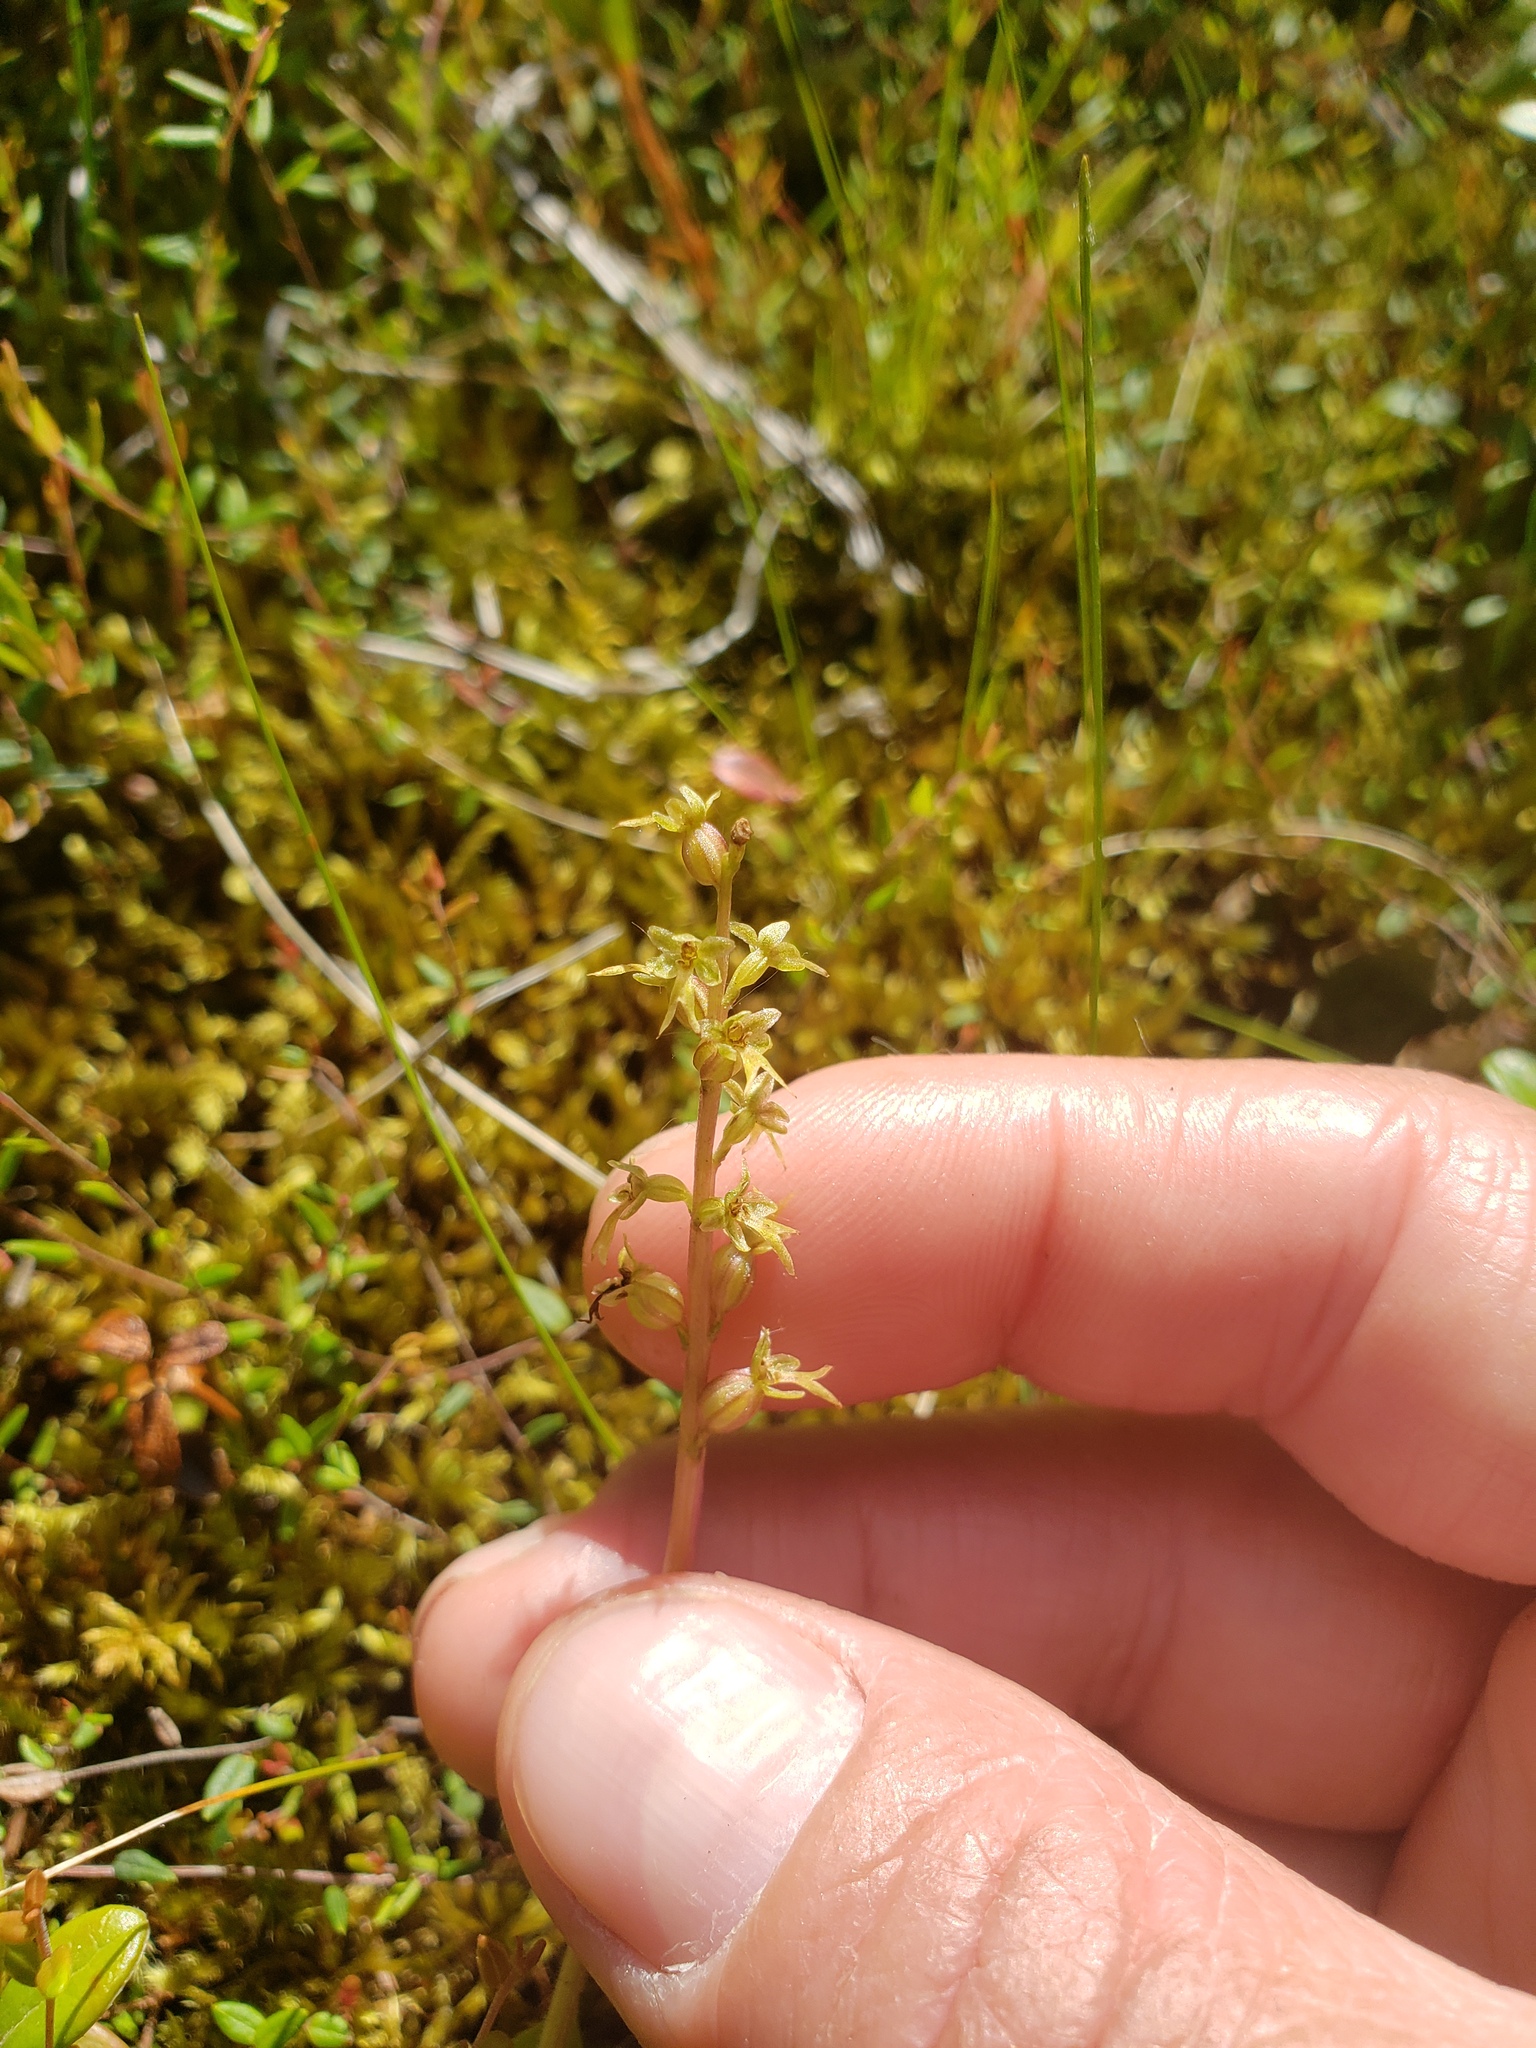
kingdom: Plantae
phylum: Tracheophyta
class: Liliopsida
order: Asparagales
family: Orchidaceae
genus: Neottia
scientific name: Neottia cordata
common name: Lesser twayblade
